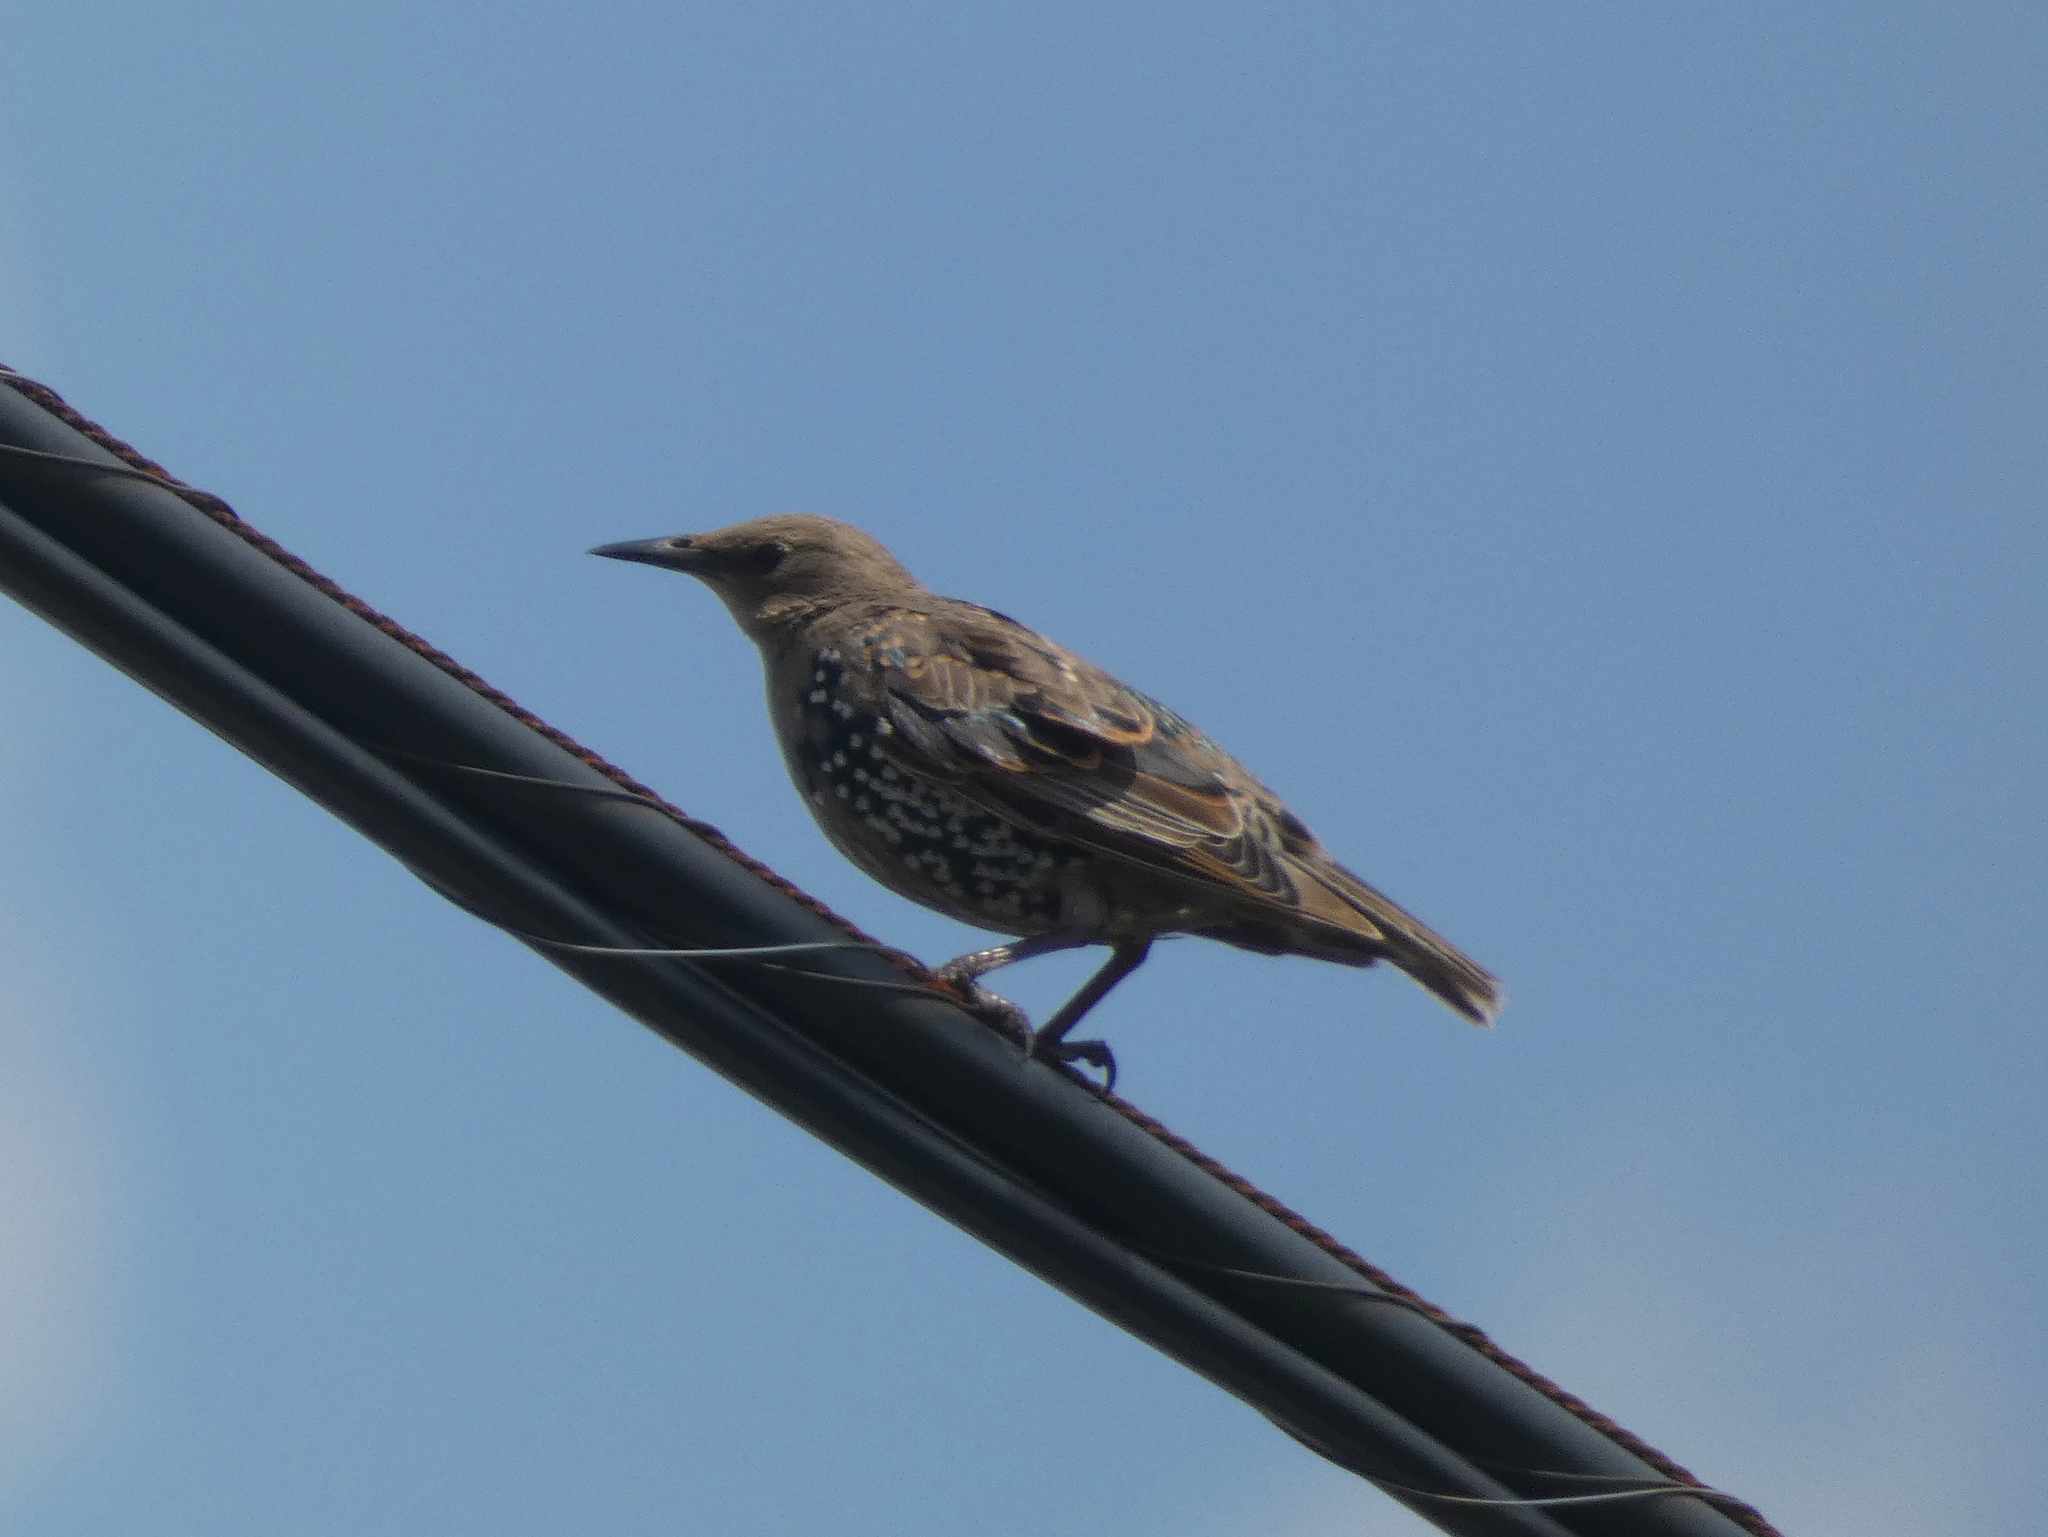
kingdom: Animalia
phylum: Chordata
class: Aves
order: Passeriformes
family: Sturnidae
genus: Sturnus
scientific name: Sturnus vulgaris
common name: Common starling
